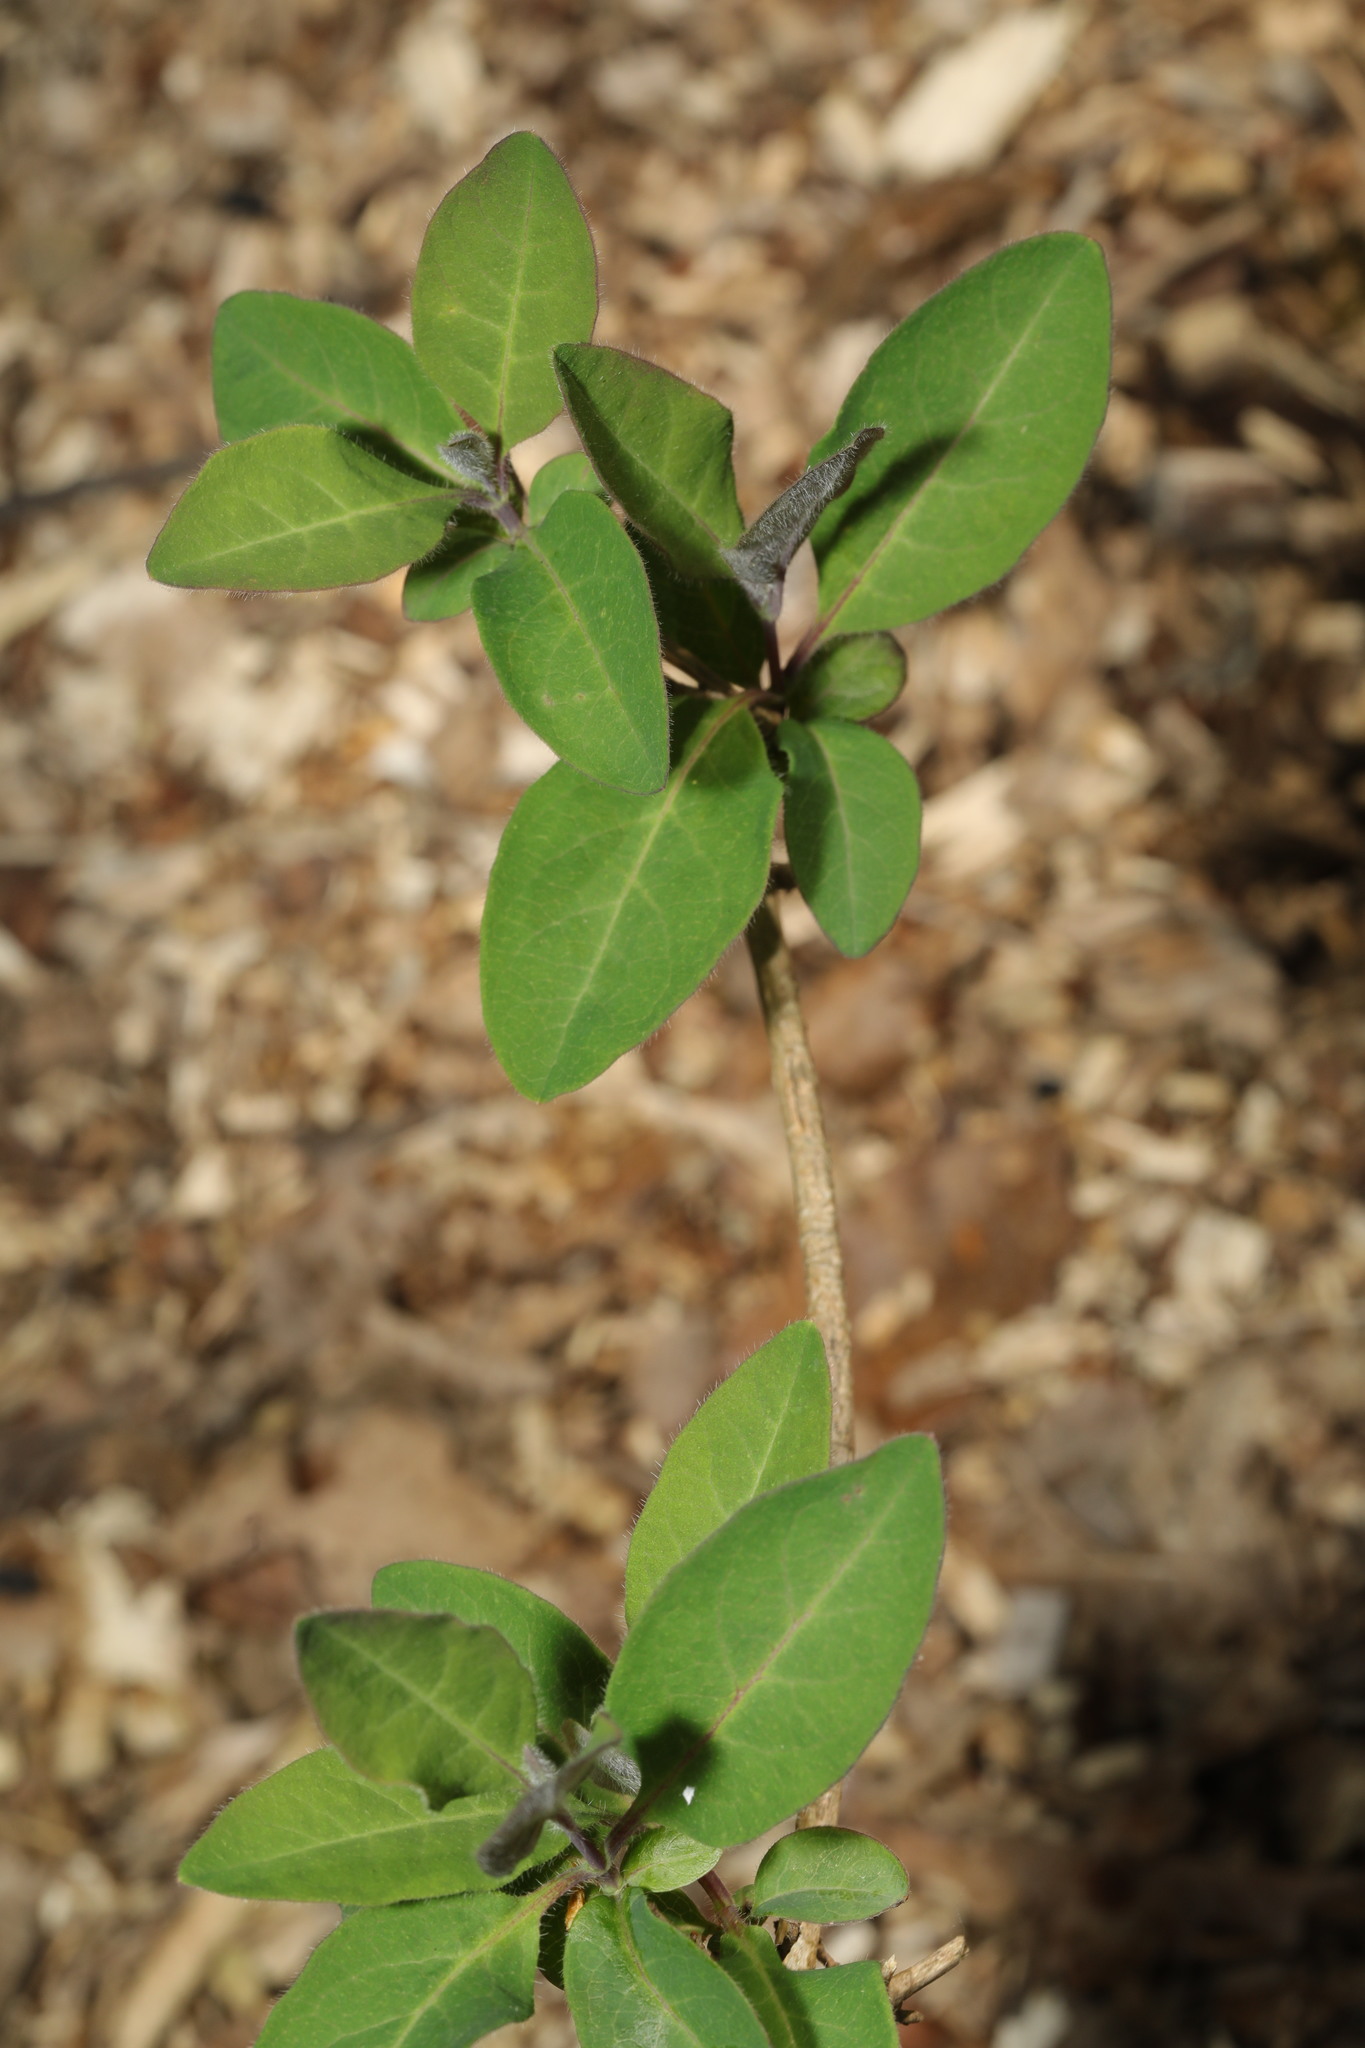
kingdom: Plantae
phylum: Tracheophyta
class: Magnoliopsida
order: Dipsacales
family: Caprifoliaceae
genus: Lonicera
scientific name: Lonicera periclymenum
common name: European honeysuckle
